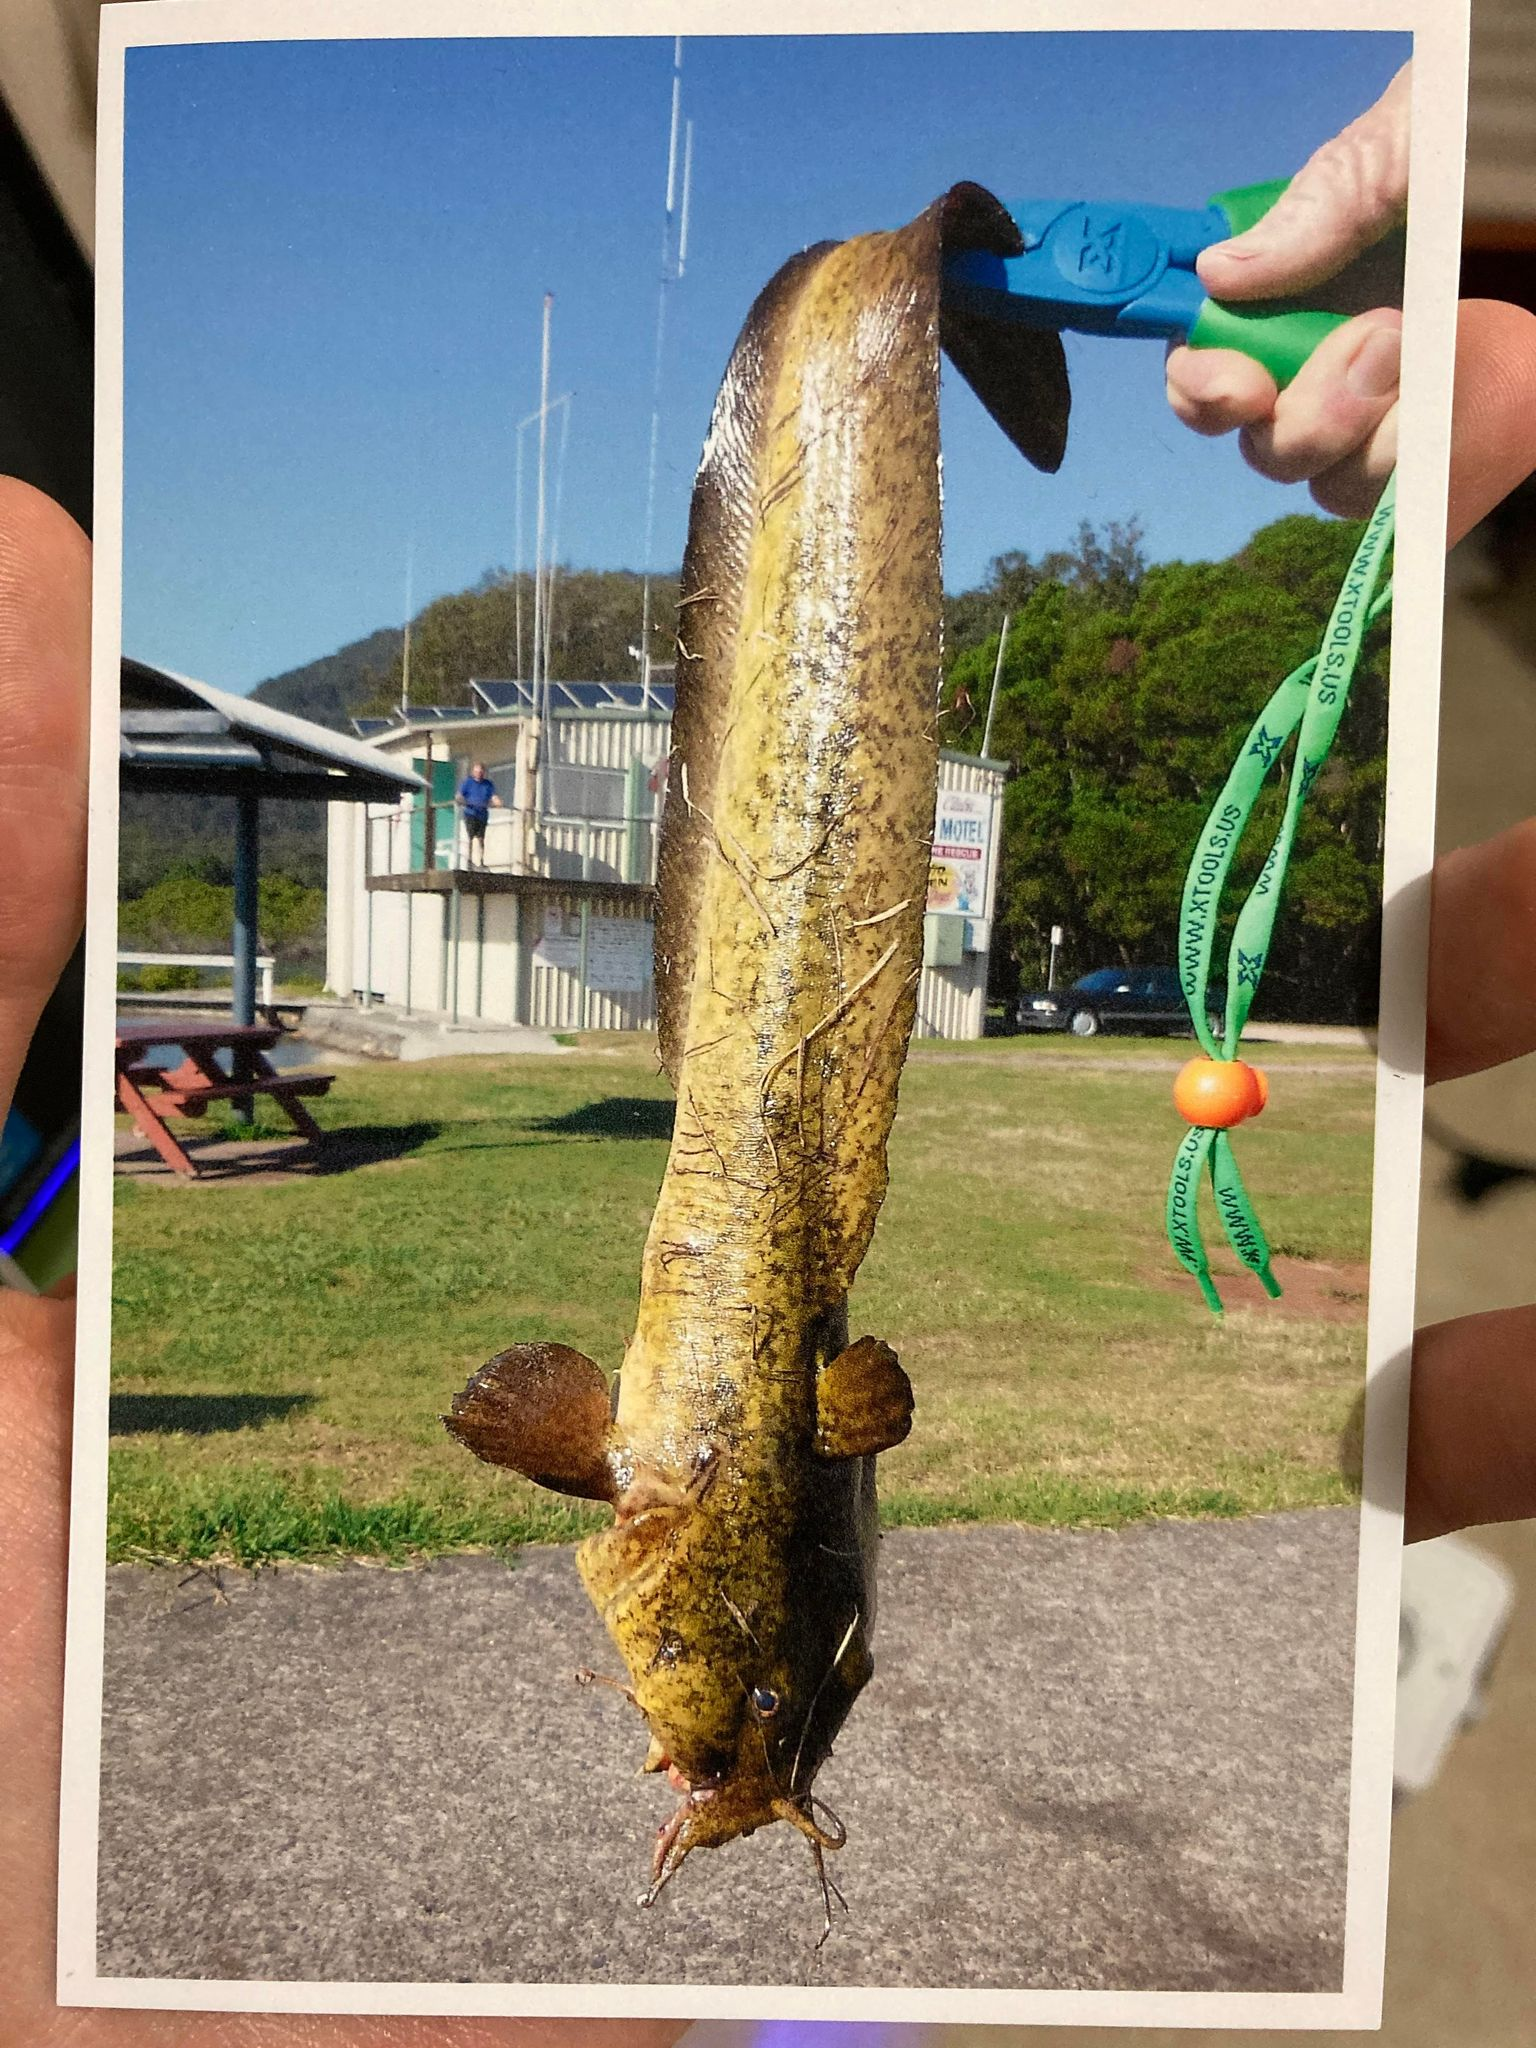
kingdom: Animalia
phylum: Chordata
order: Siluriformes
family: Plotosidae
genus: Cnidoglanis
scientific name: Cnidoglanis macrocephalus
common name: Cobbler
